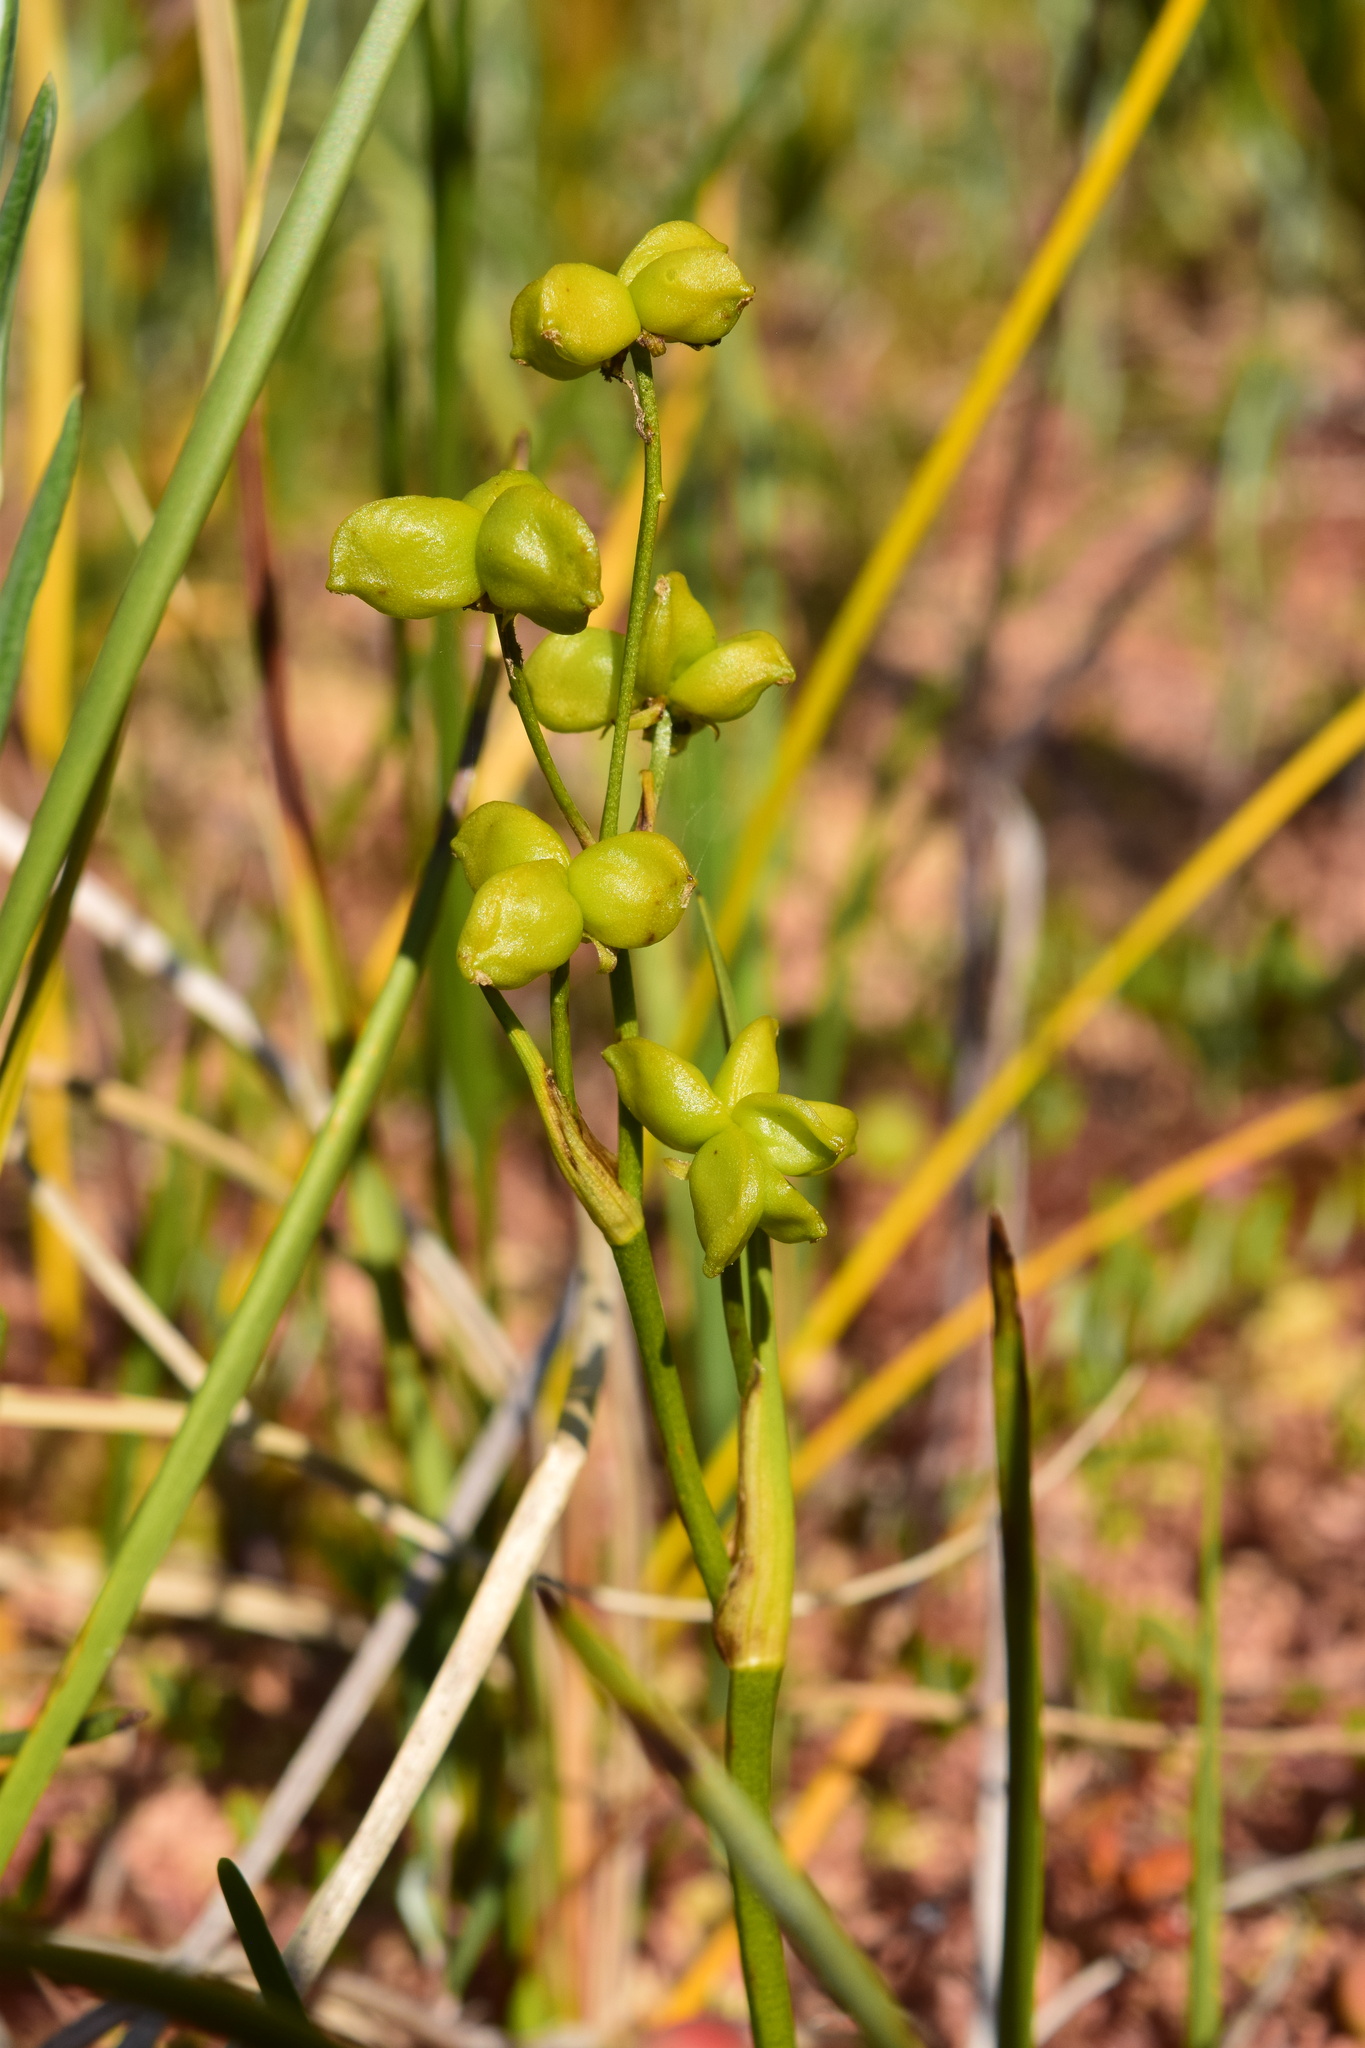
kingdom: Plantae
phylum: Tracheophyta
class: Liliopsida
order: Alismatales
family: Scheuchzeriaceae
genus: Scheuchzeria
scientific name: Scheuchzeria palustris
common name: Rannoch-rush
